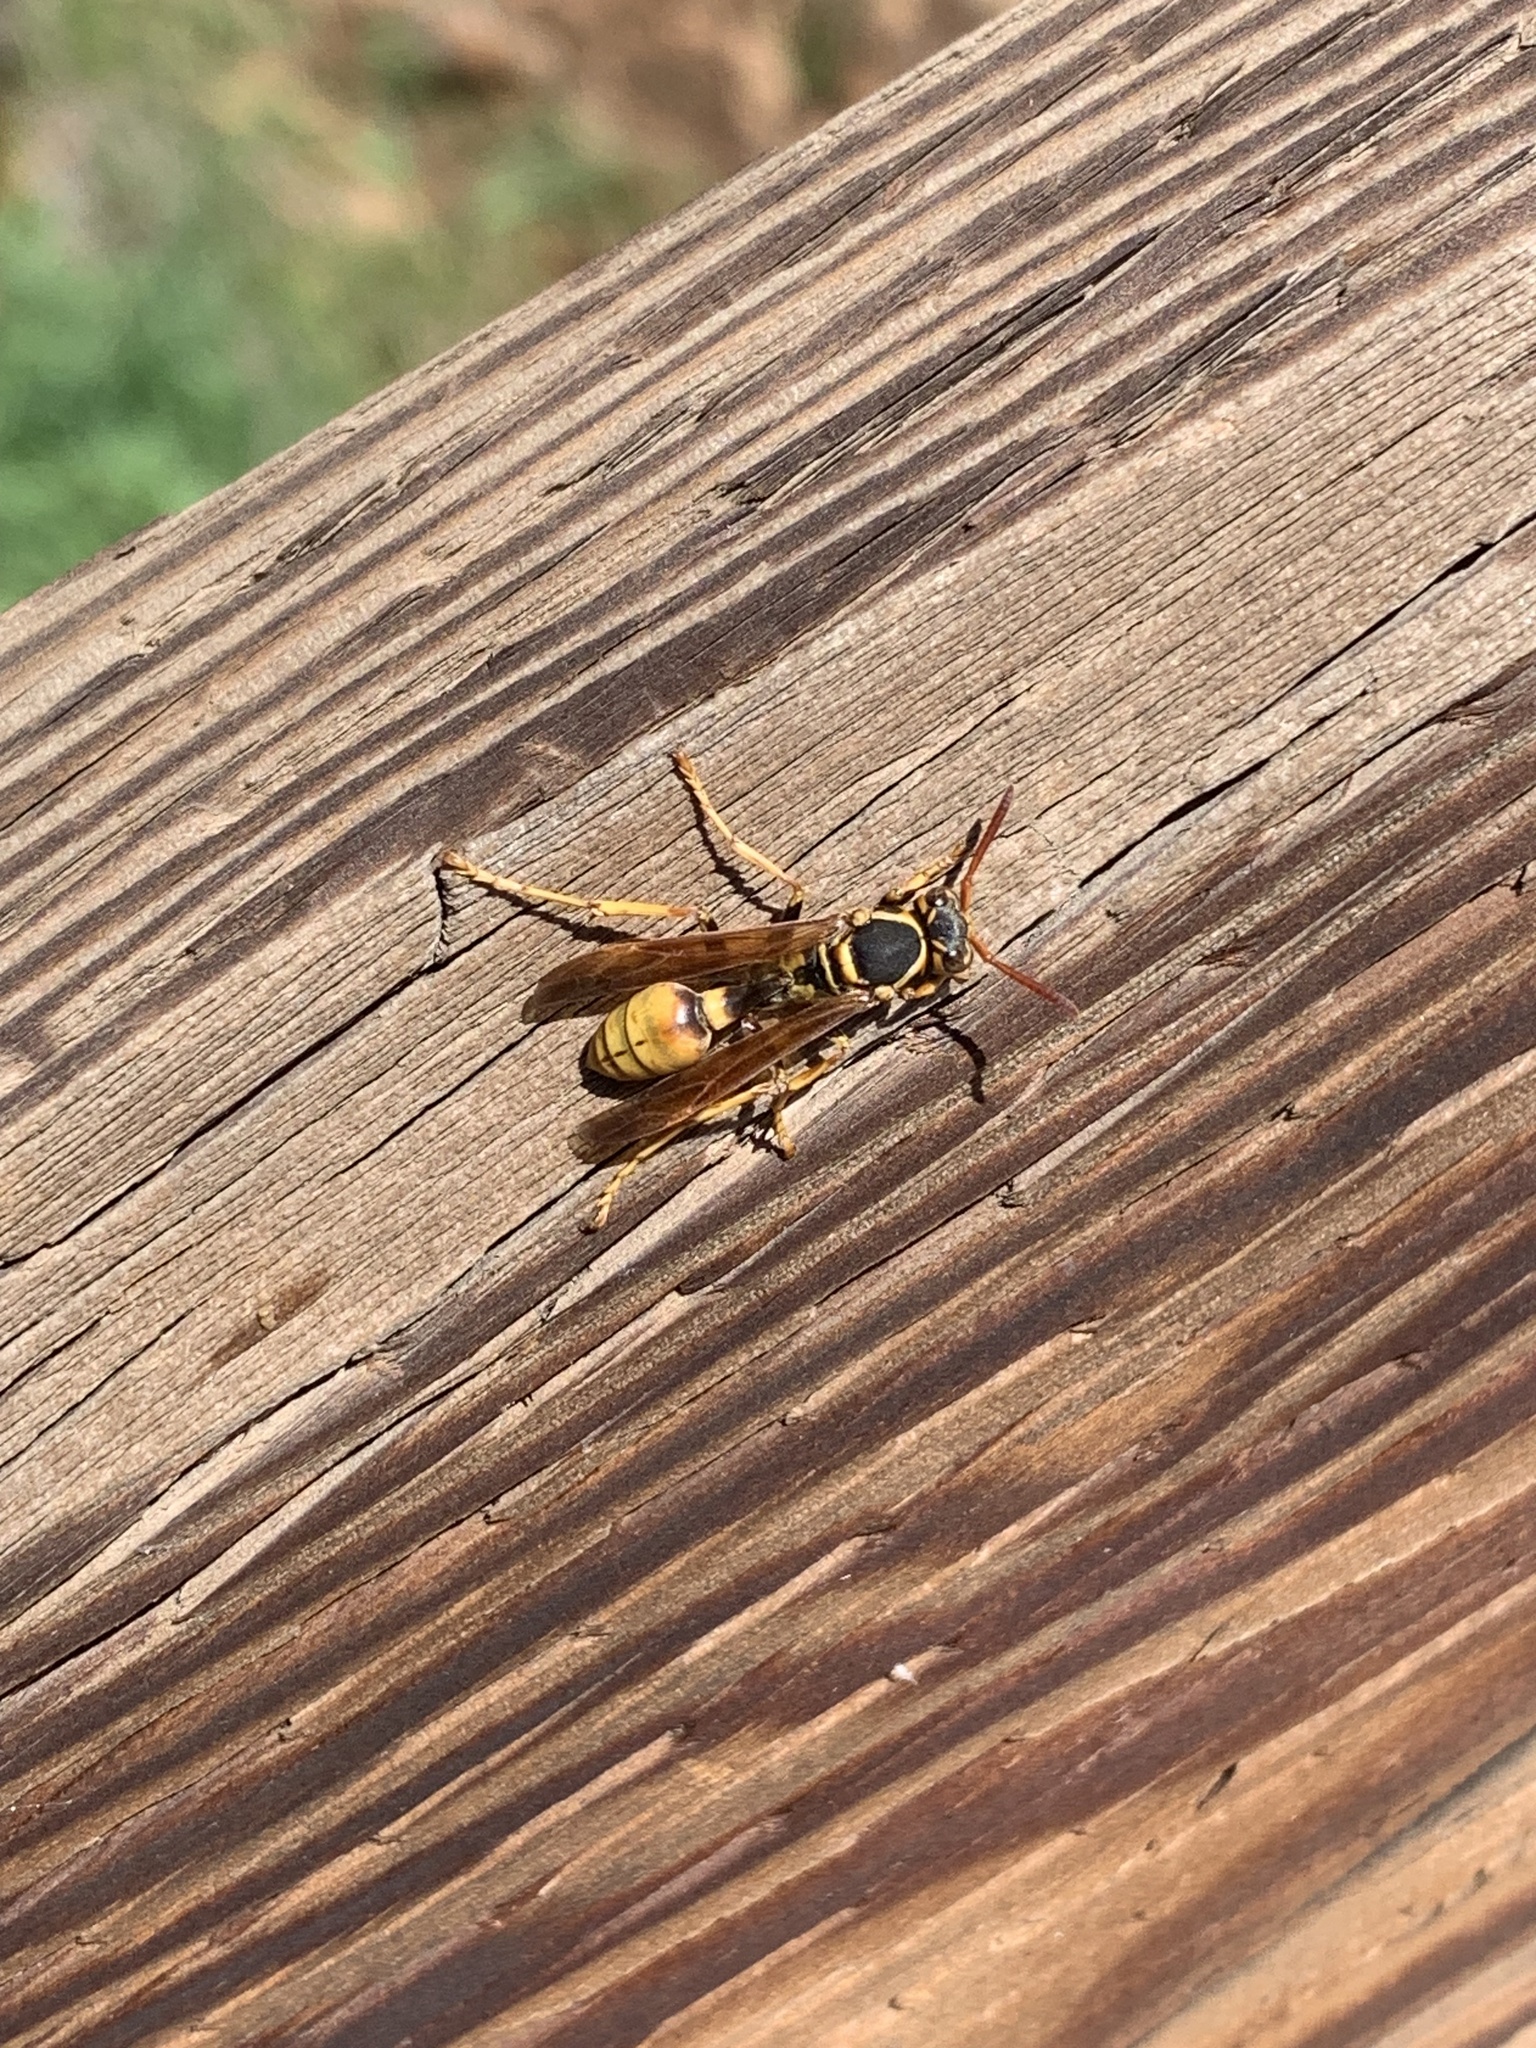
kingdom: Animalia
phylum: Arthropoda
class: Insecta
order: Hymenoptera
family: Vespidae
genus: Mischocyttarus
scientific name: Mischocyttarus flavitarsis
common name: Wasp
